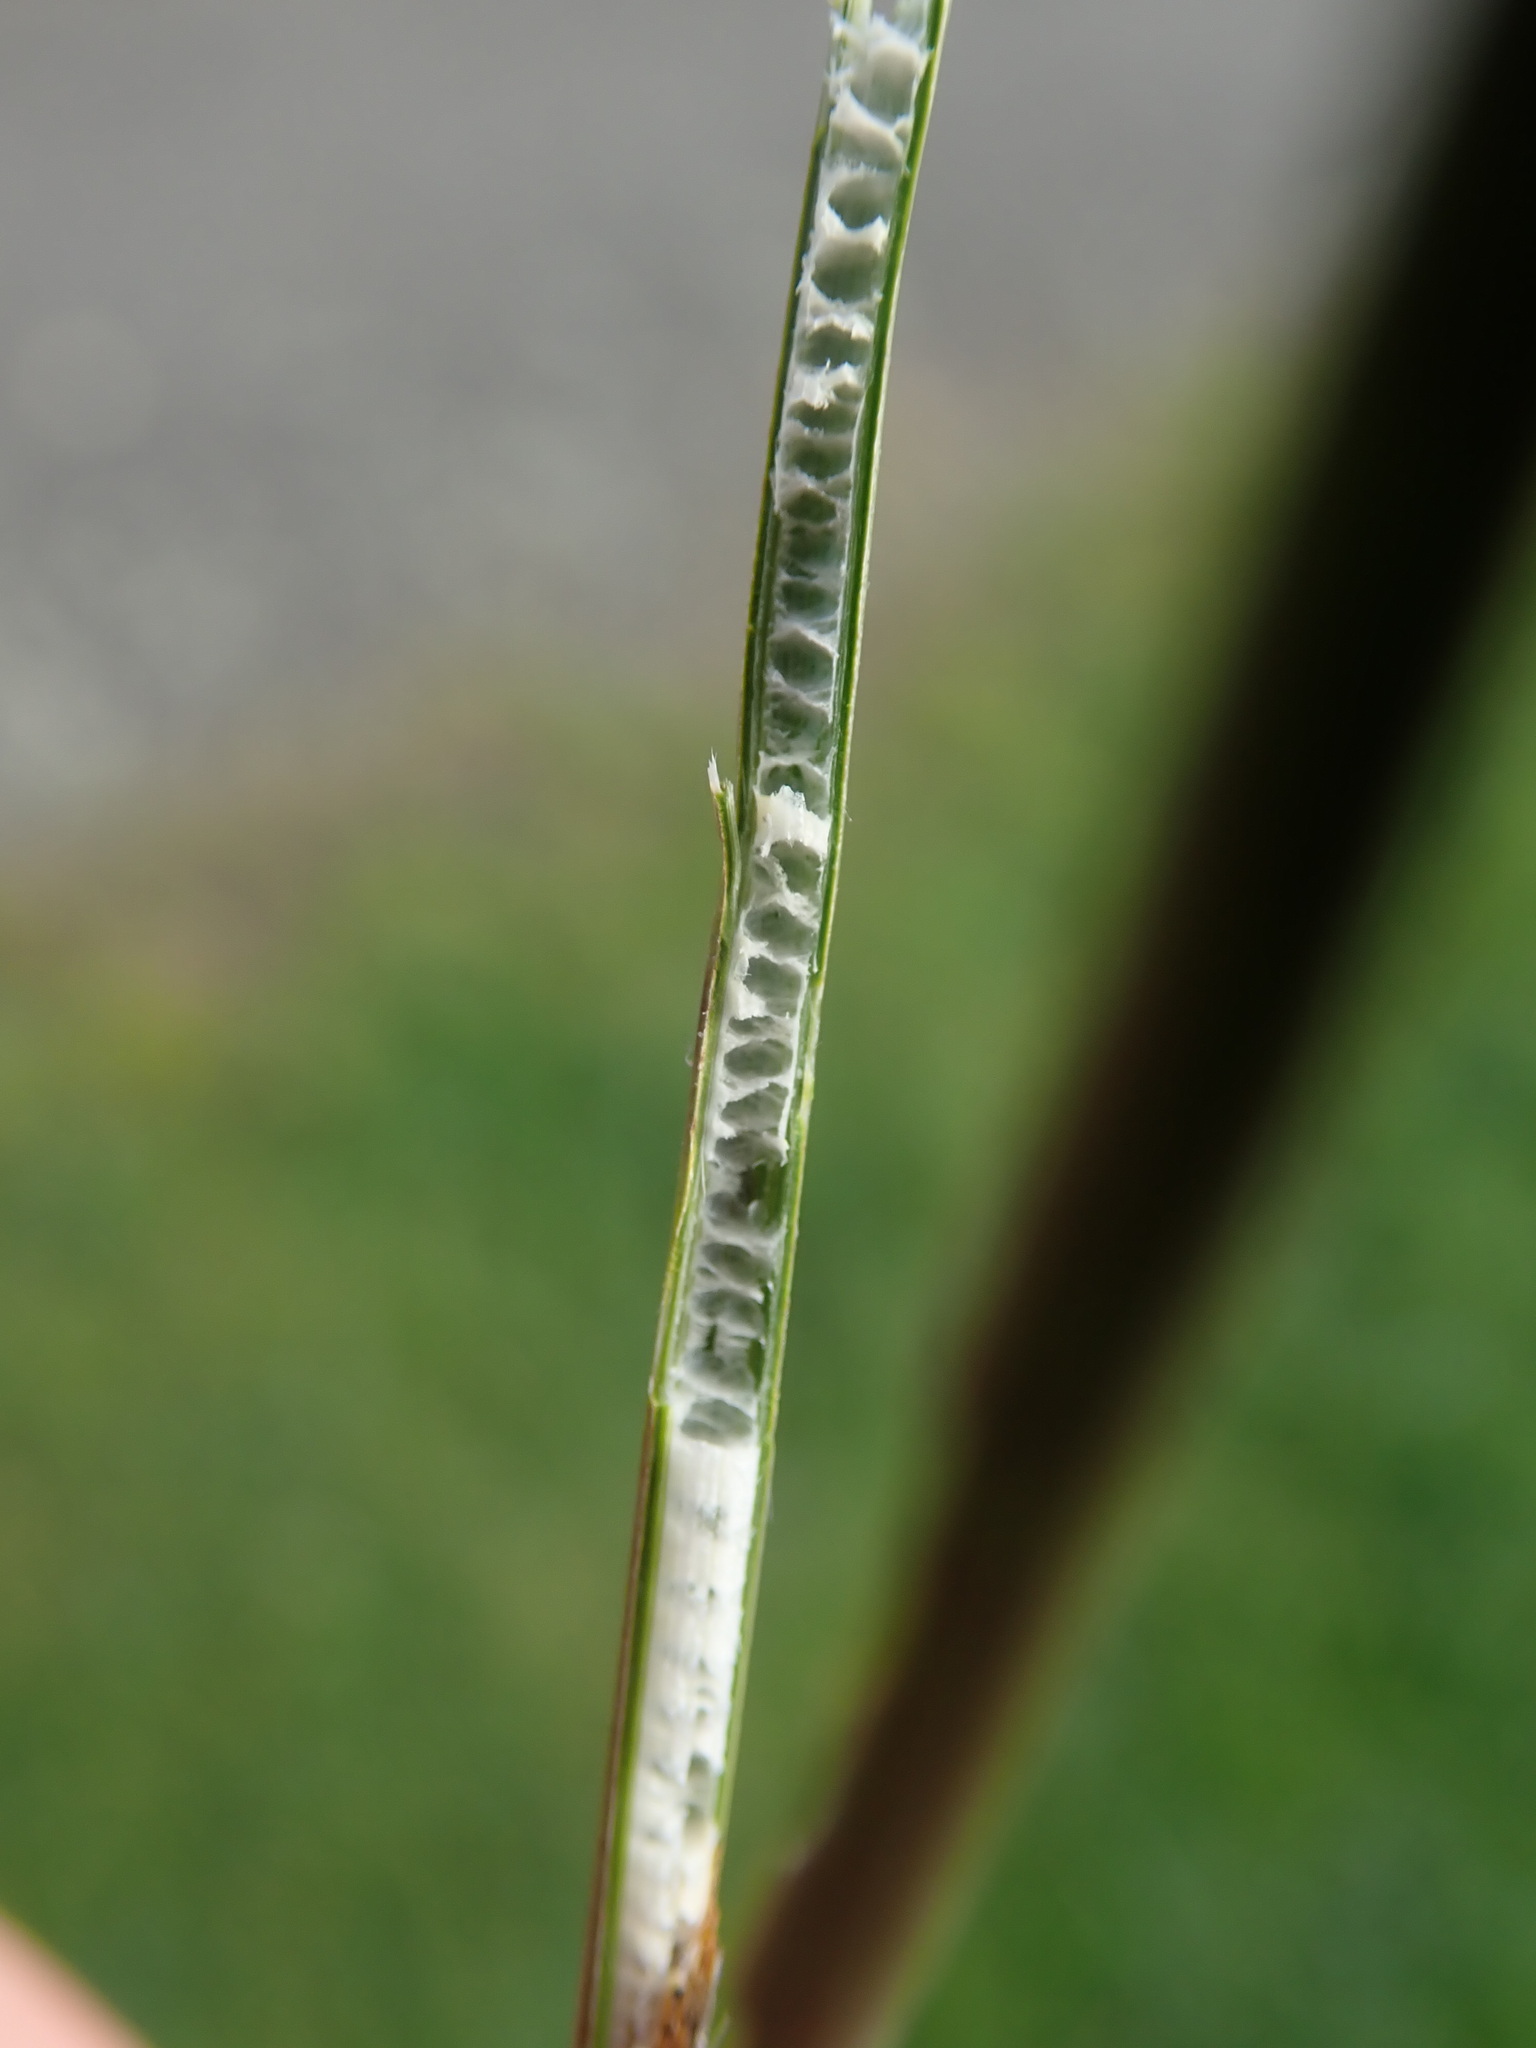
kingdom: Plantae
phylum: Tracheophyta
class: Liliopsida
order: Poales
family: Juncaceae
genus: Juncus
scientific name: Juncus inflexus
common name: Hard rush
